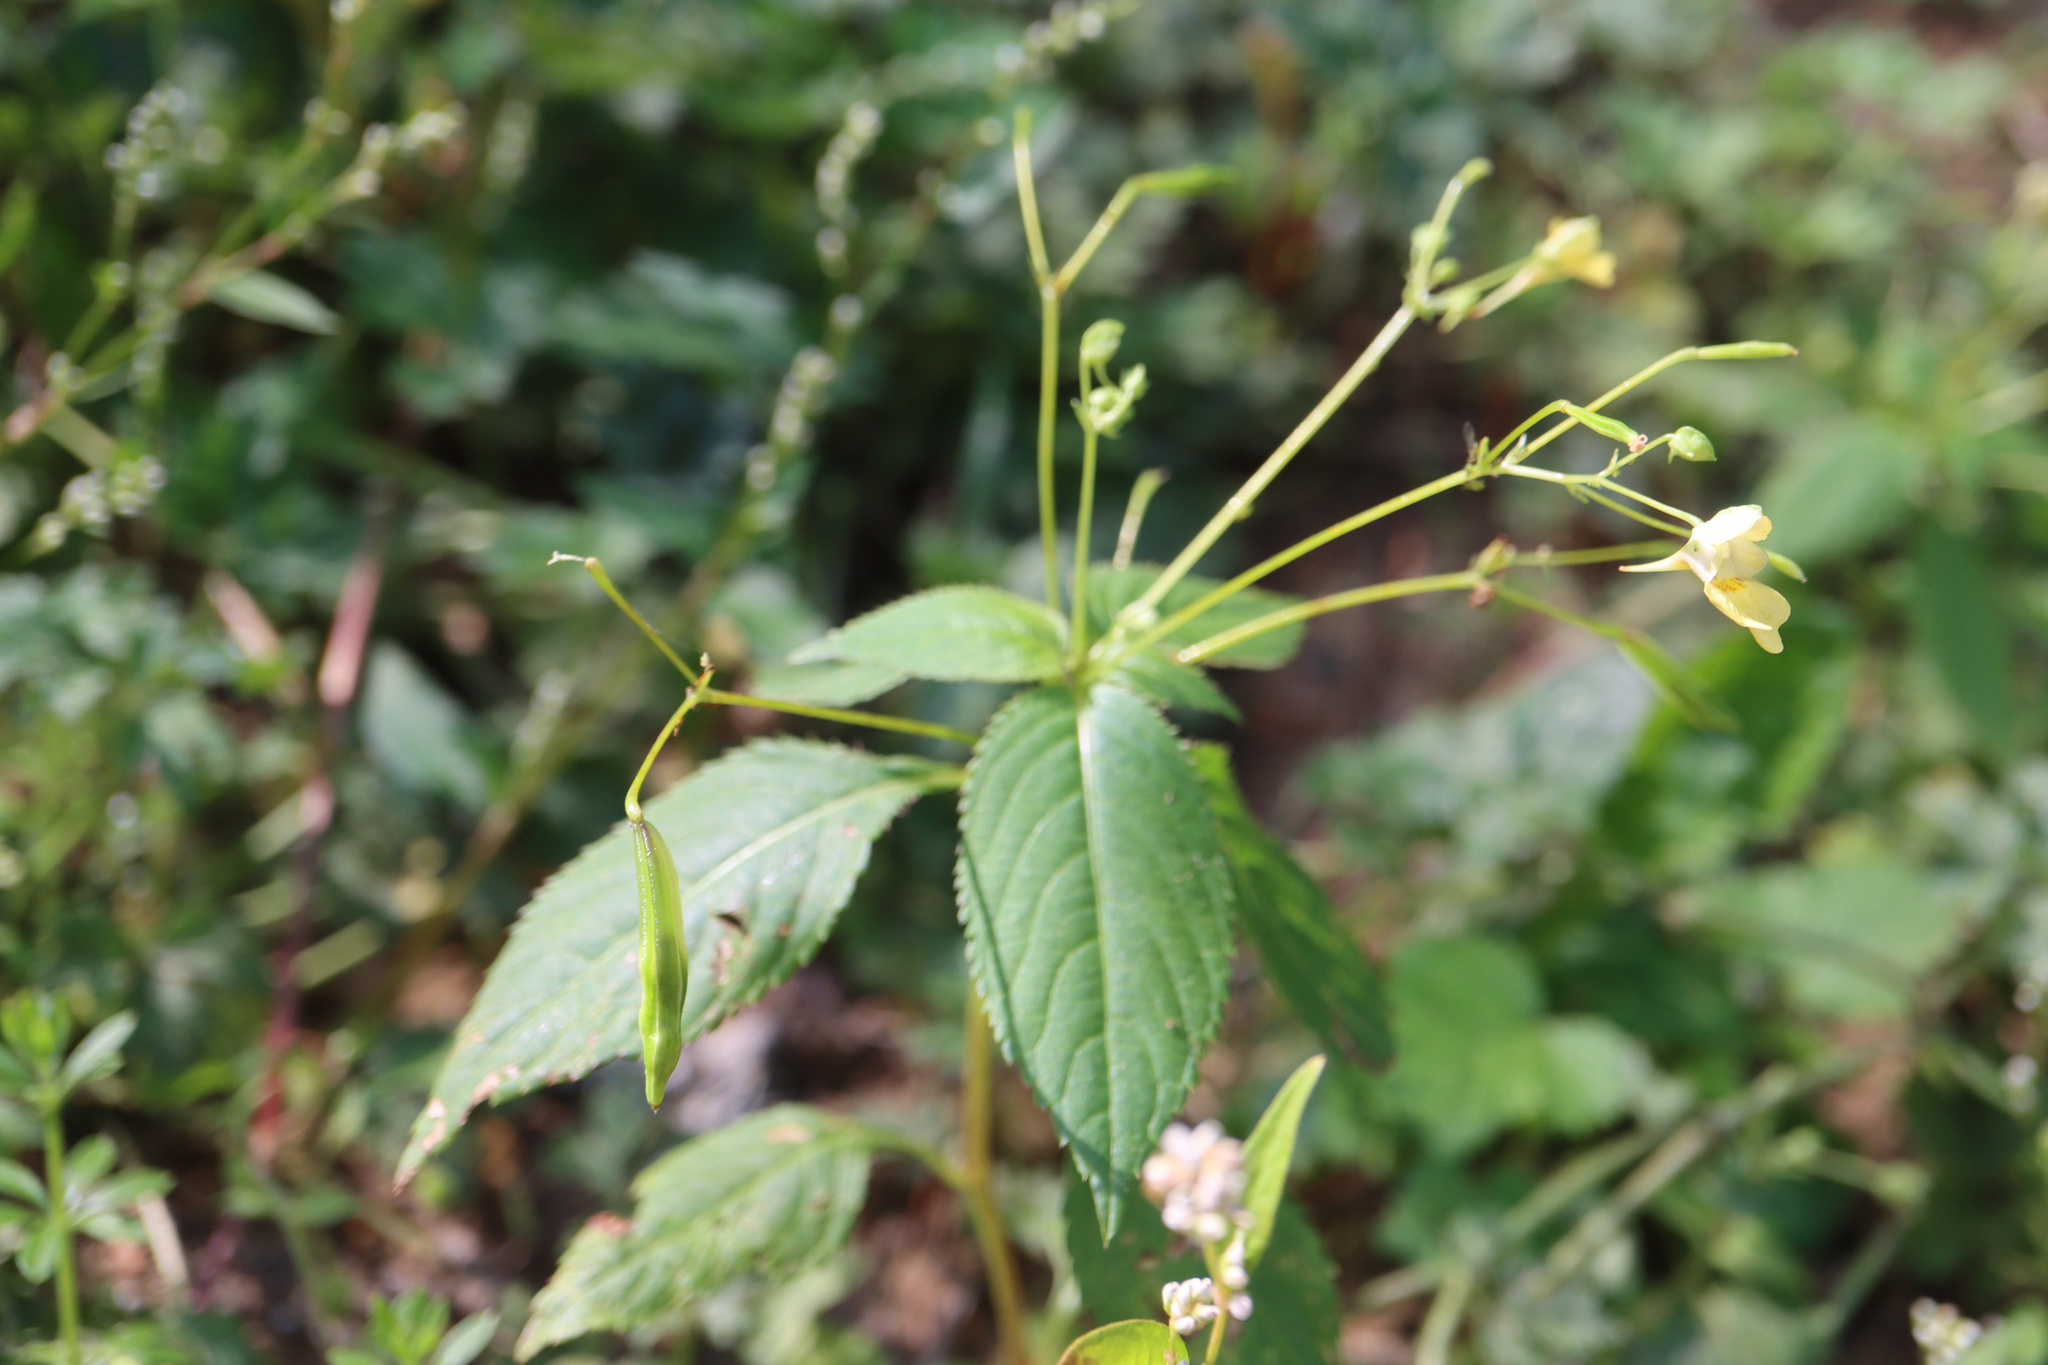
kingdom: Plantae
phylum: Tracheophyta
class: Magnoliopsida
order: Ericales
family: Balsaminaceae
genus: Impatiens
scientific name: Impatiens parviflora
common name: Small balsam
